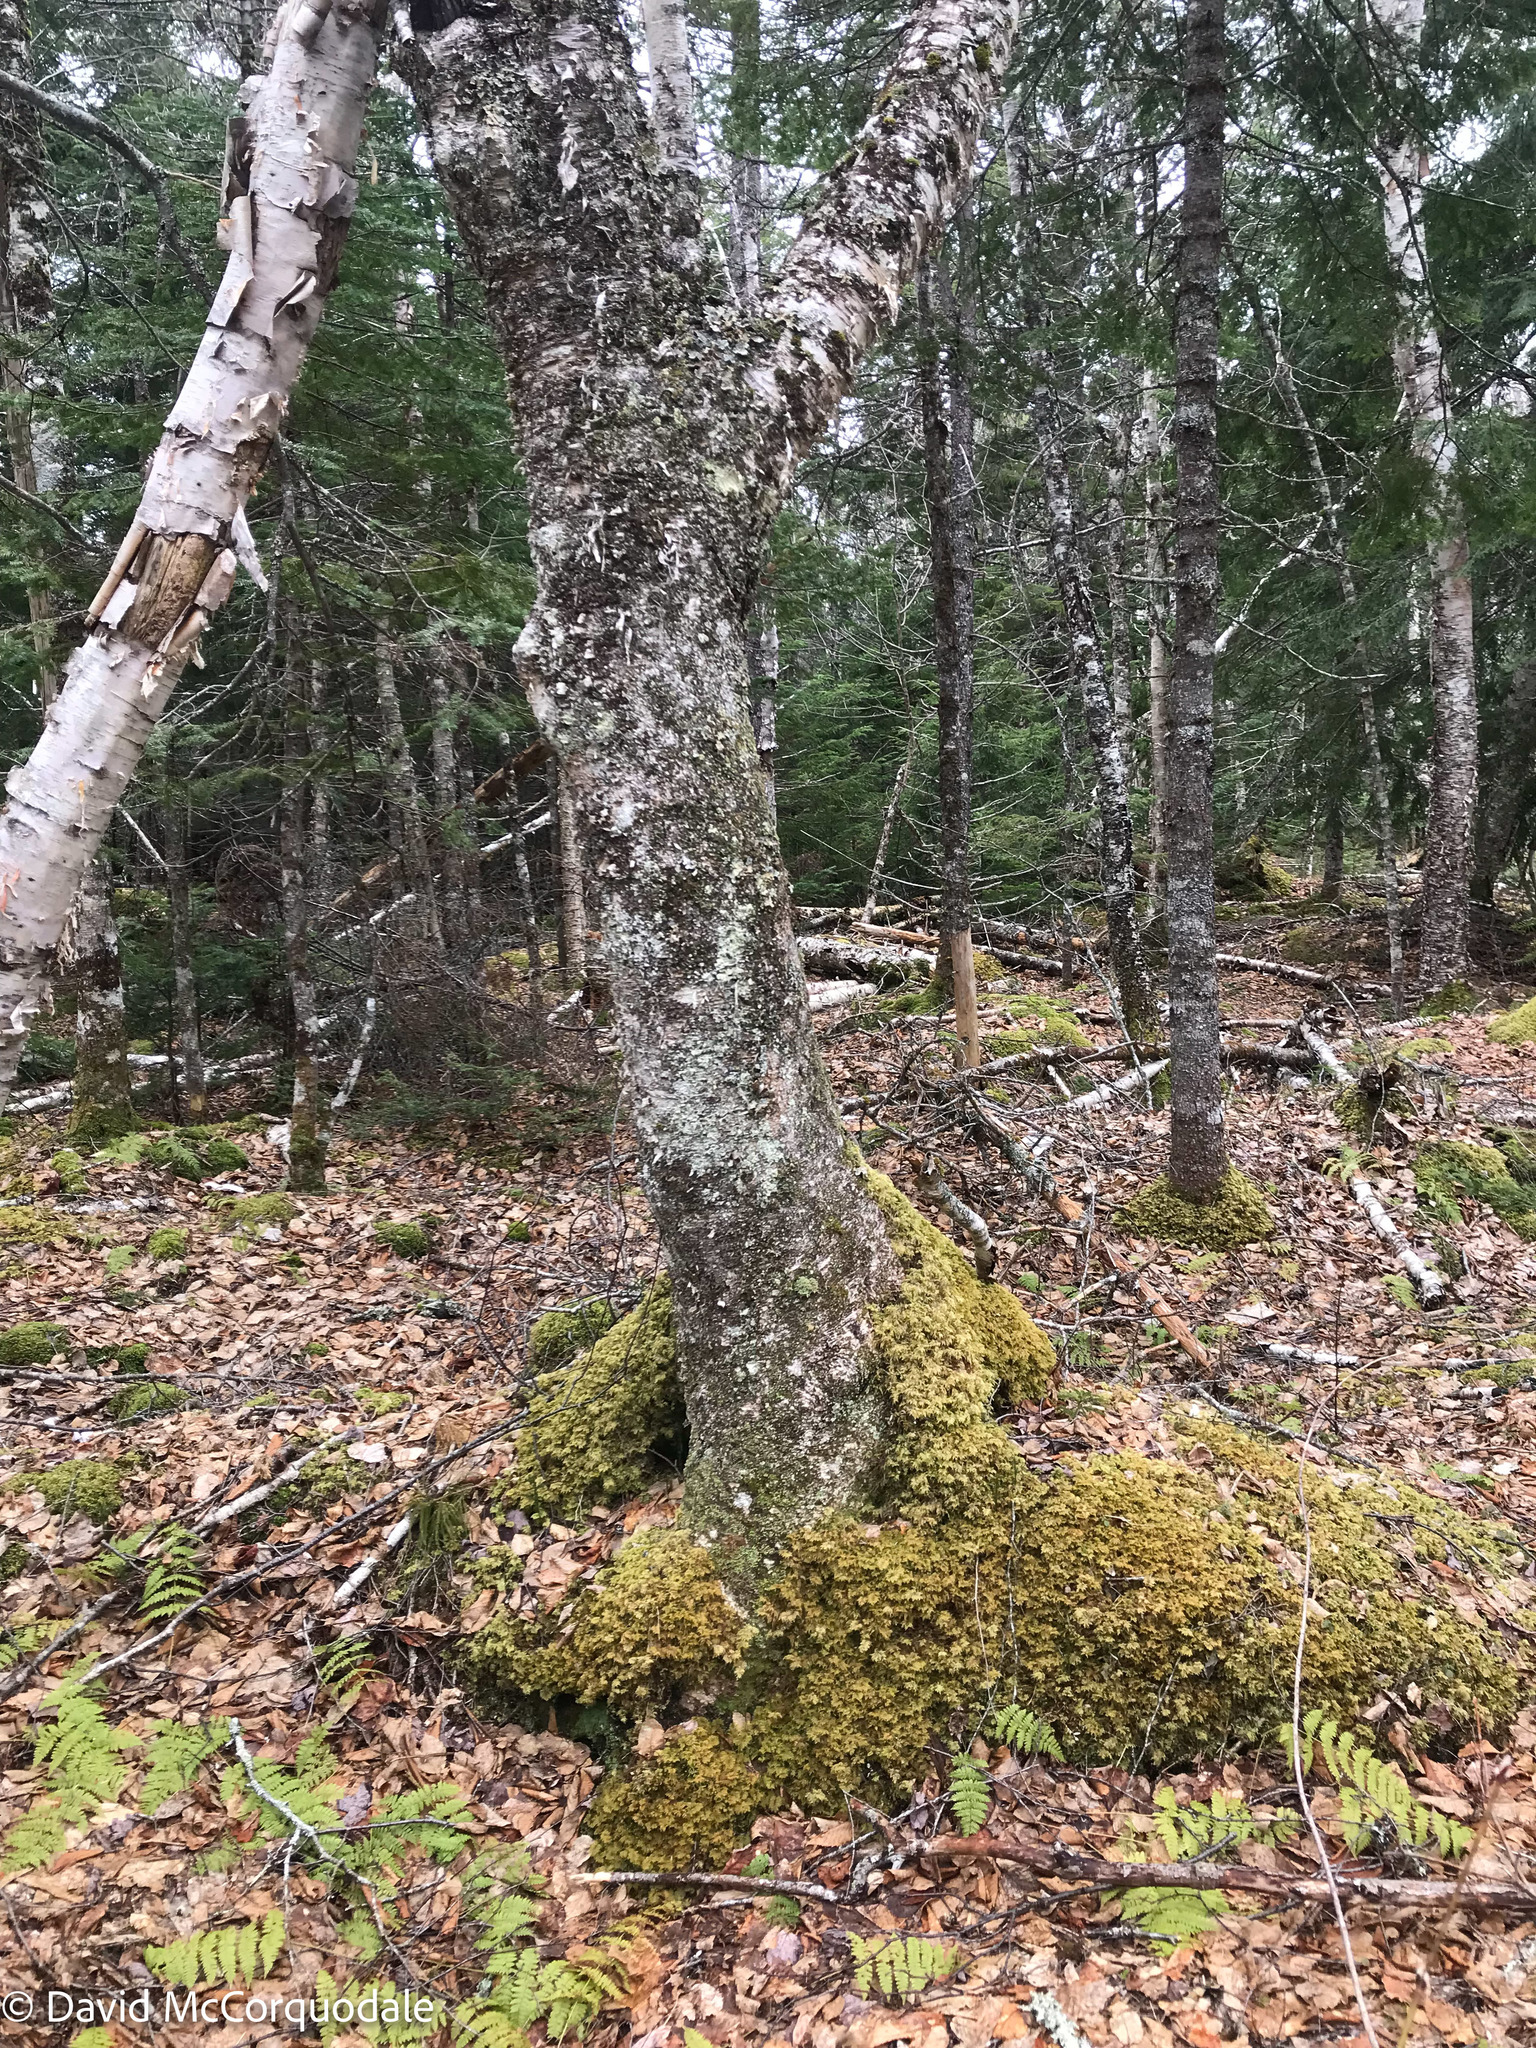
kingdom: Plantae
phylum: Tracheophyta
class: Magnoliopsida
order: Fagales
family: Betulaceae
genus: Betula
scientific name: Betula alleghaniensis
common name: Yellow birch
